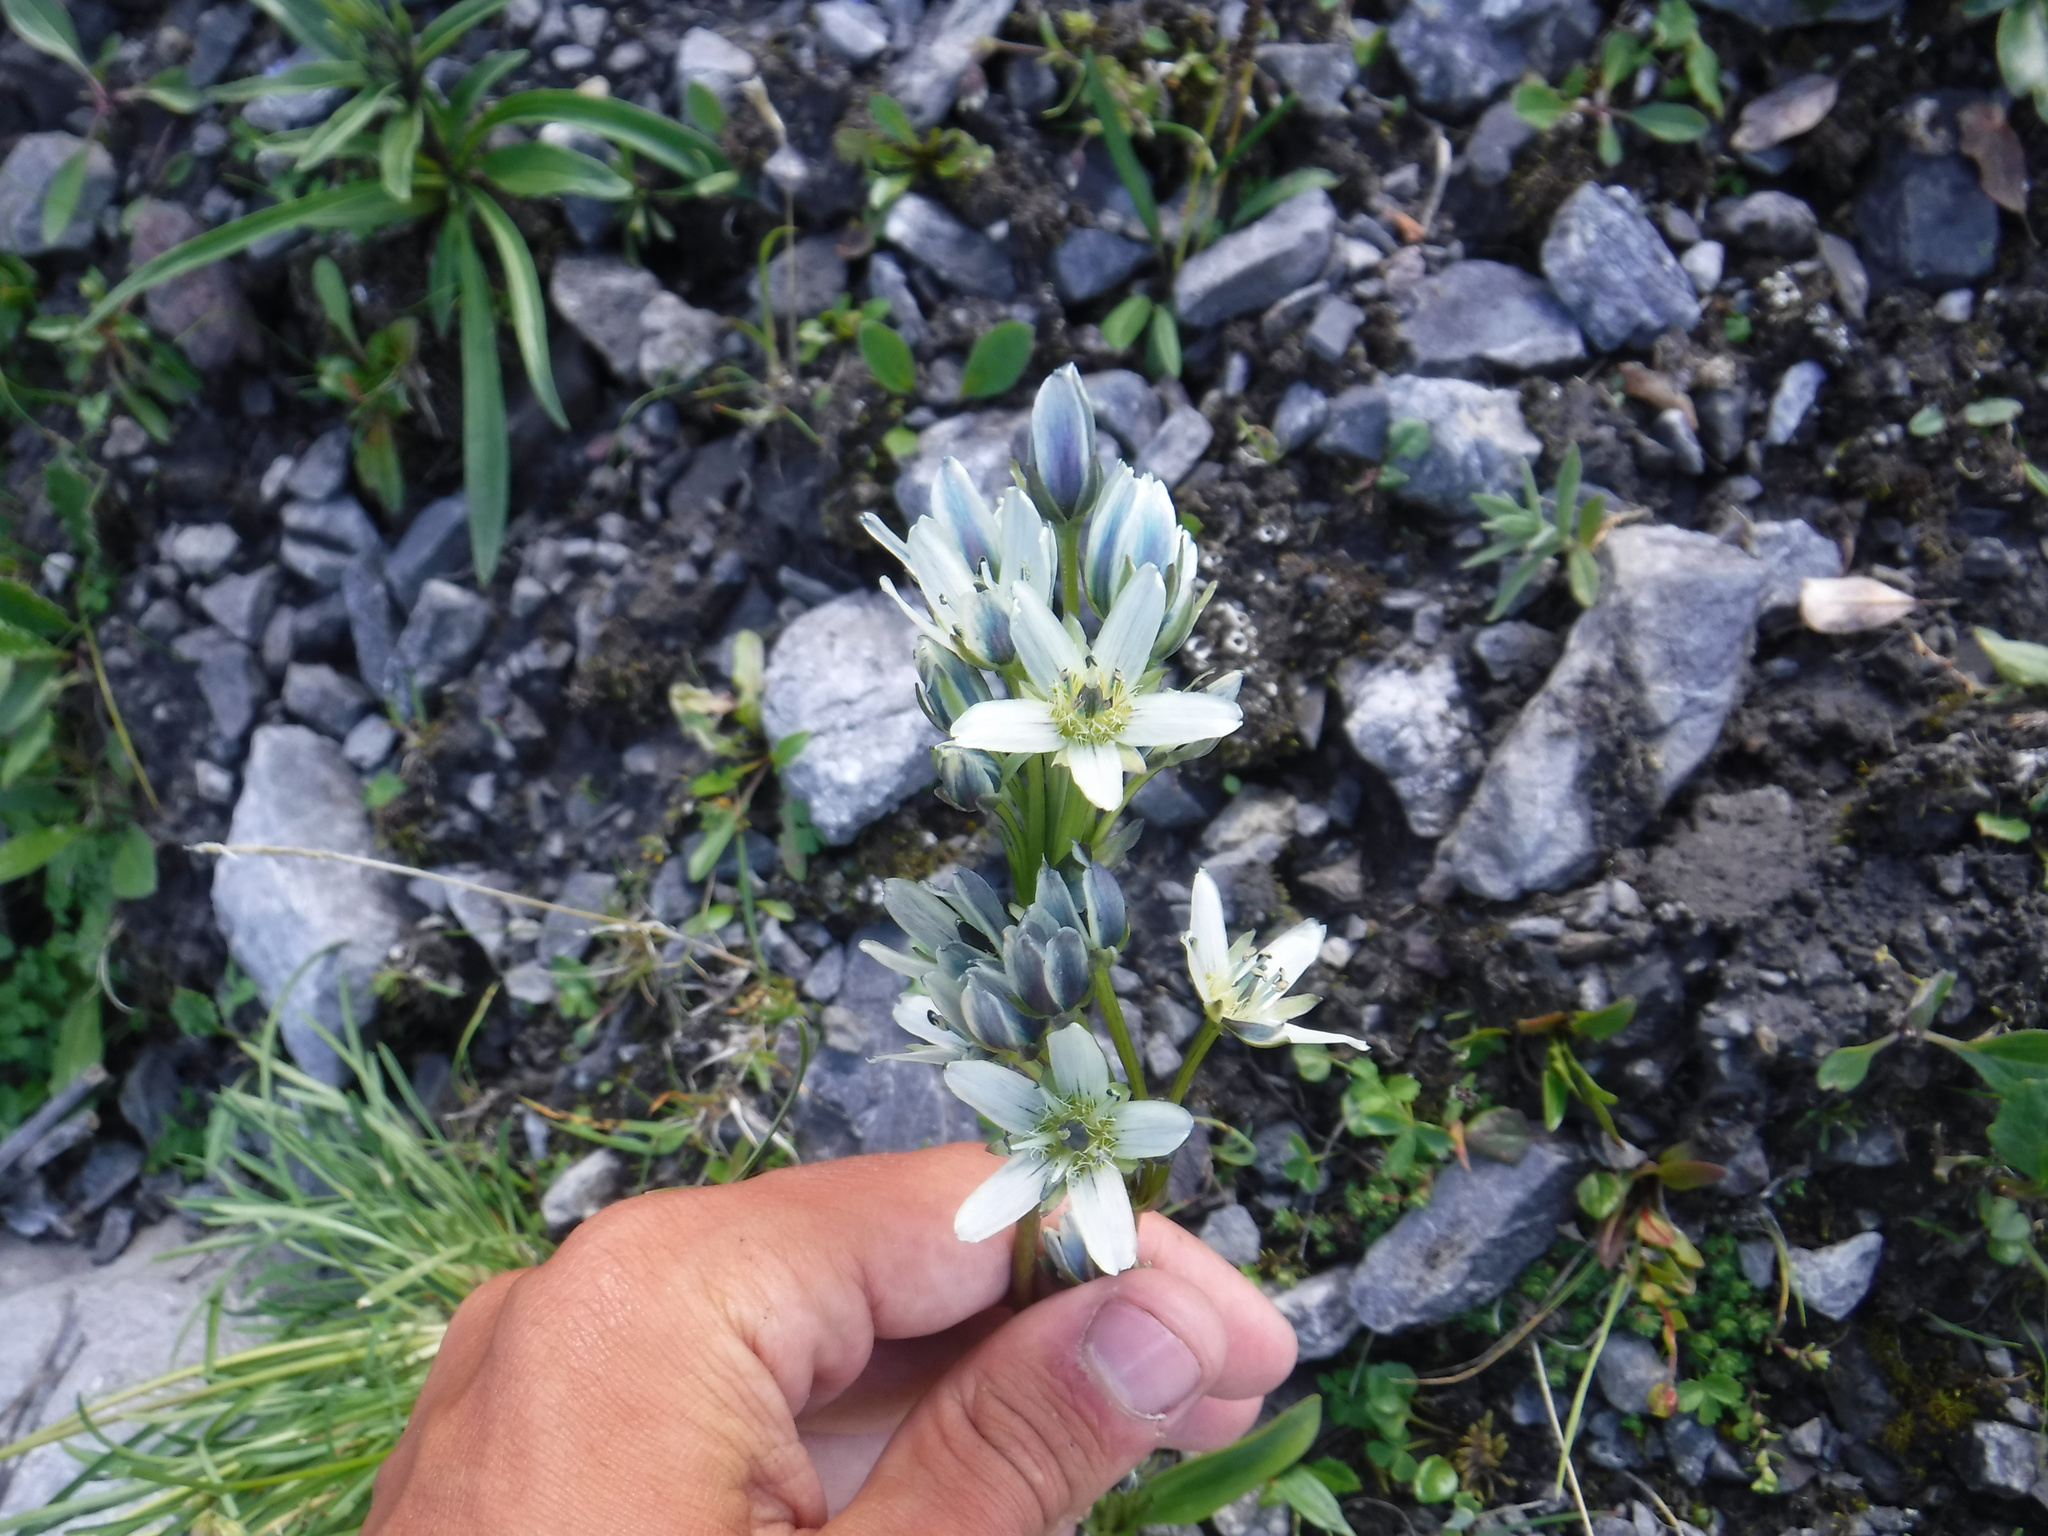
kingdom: Plantae
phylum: Tracheophyta
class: Magnoliopsida
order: Gentianales
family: Gentianaceae
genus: Swertia
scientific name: Swertia marginata
